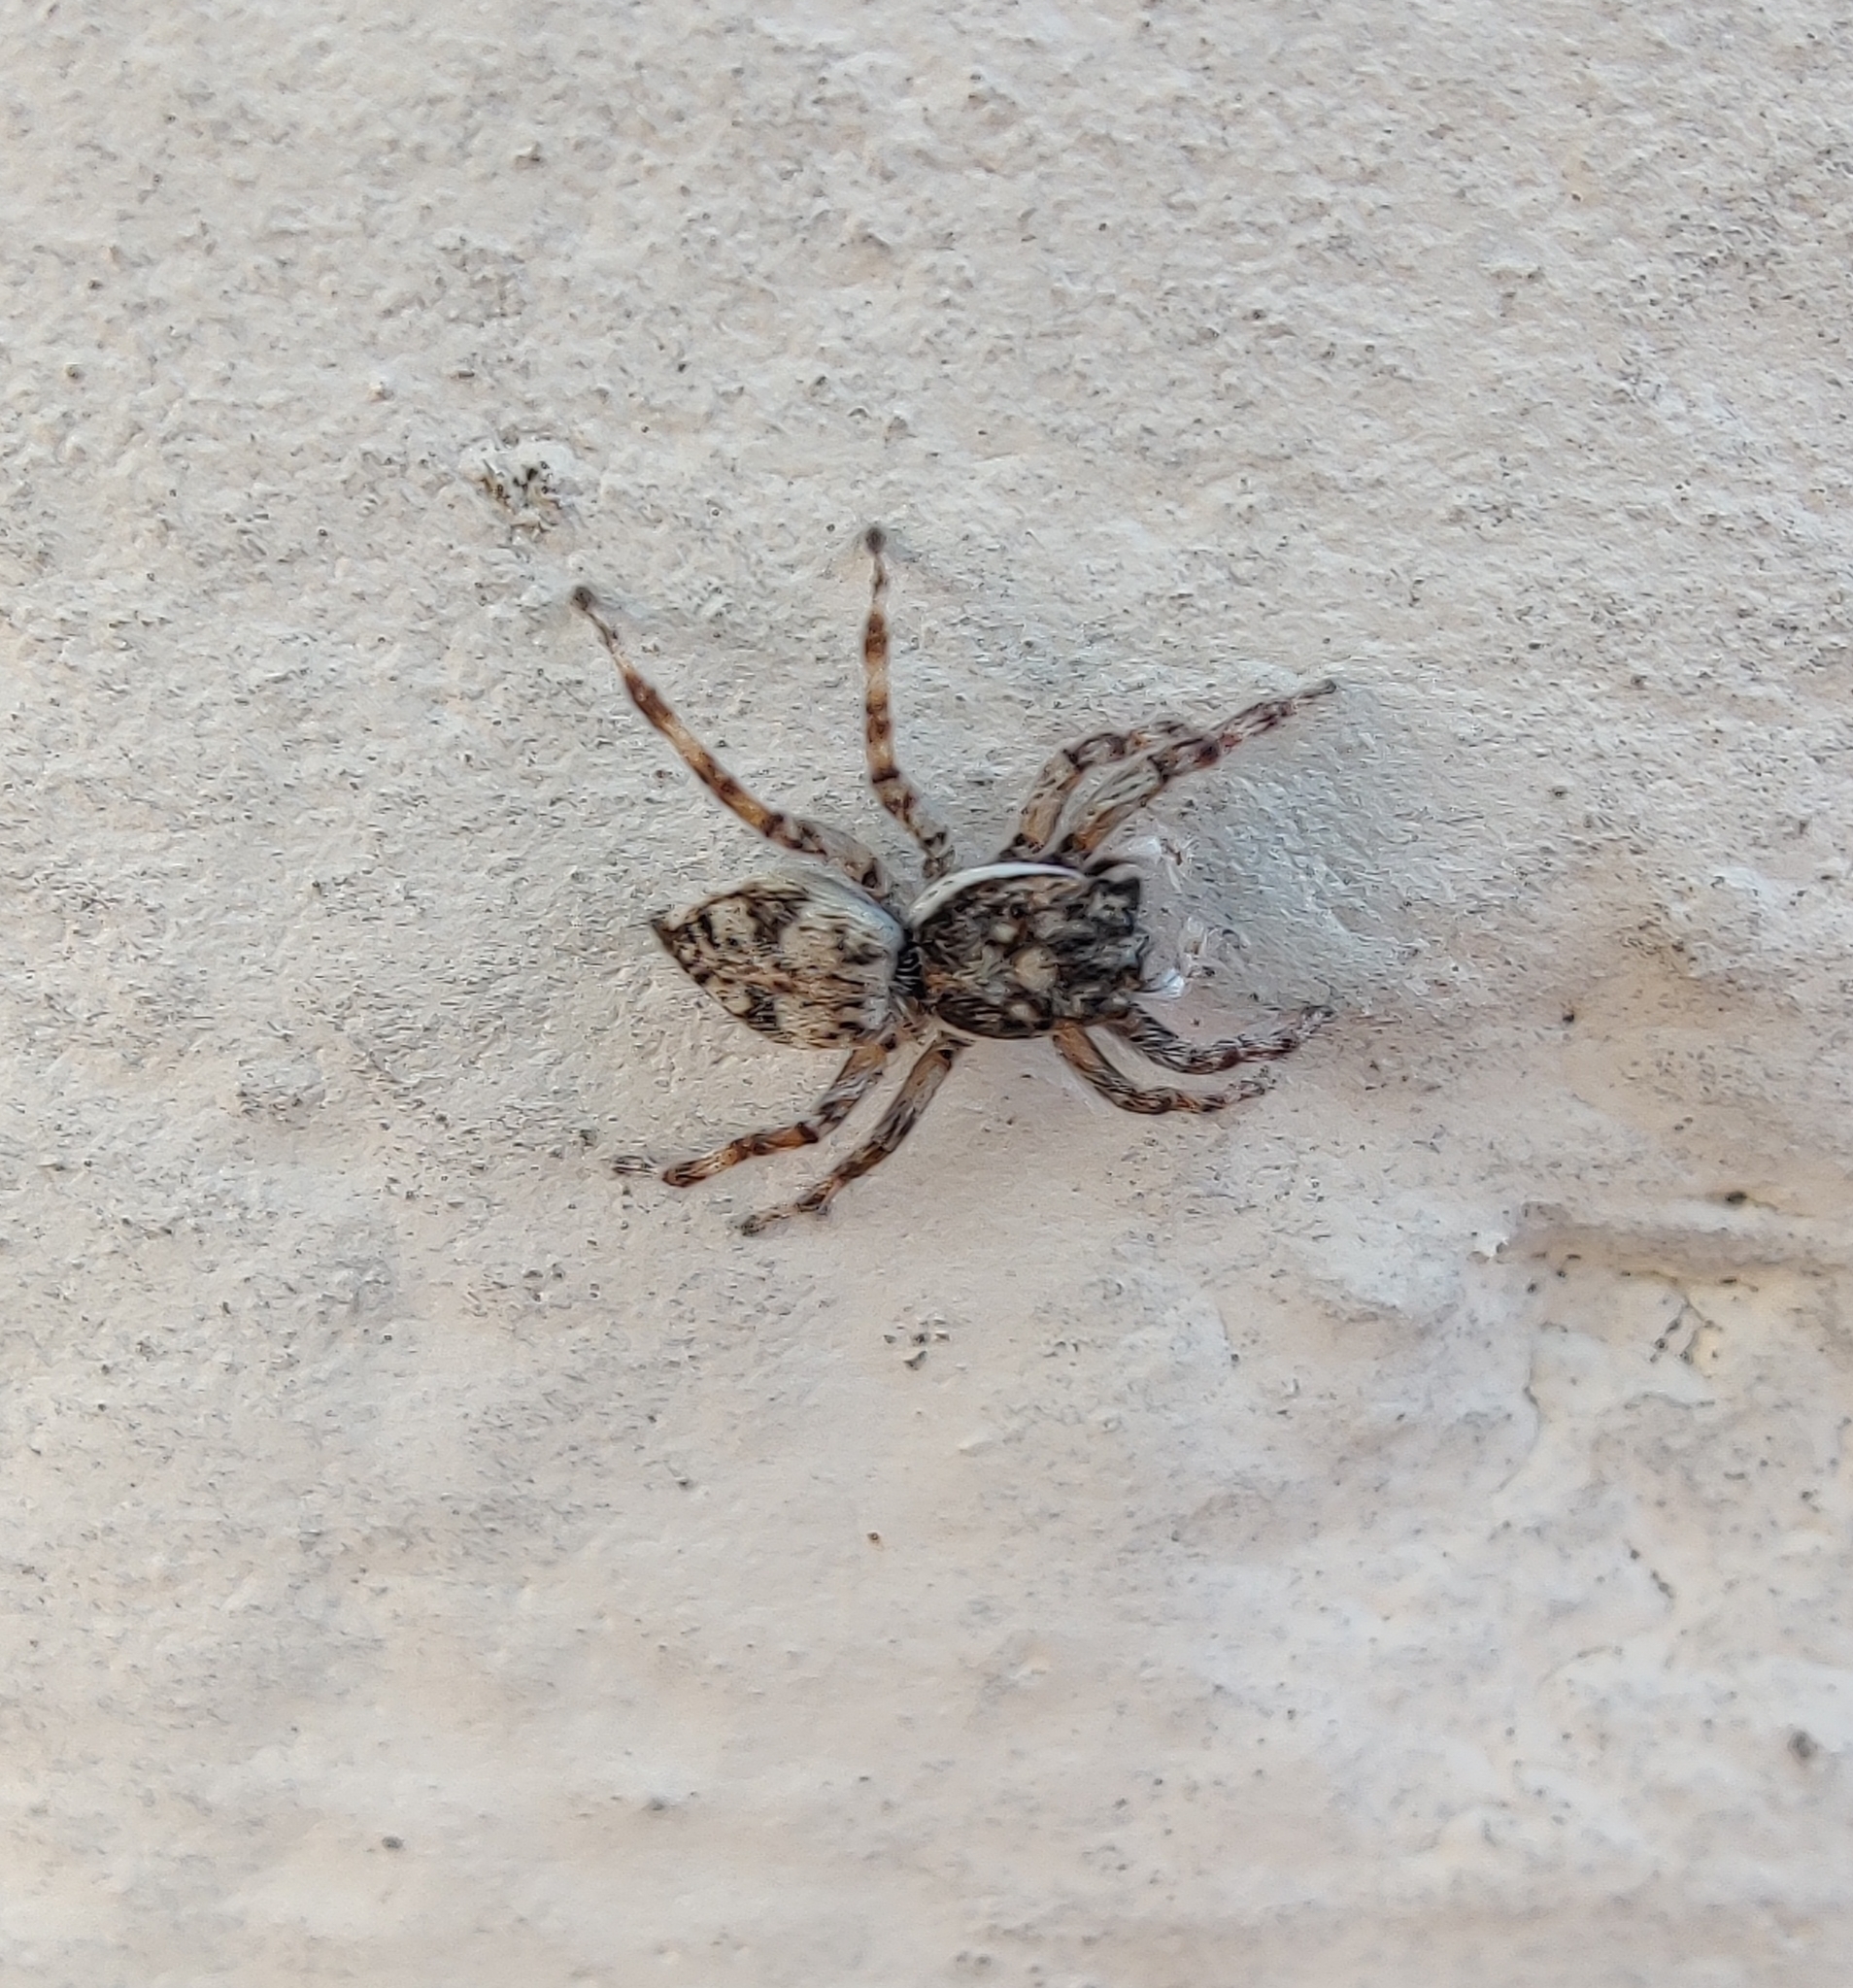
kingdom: Animalia
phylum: Arthropoda
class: Arachnida
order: Araneae
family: Salticidae
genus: Menemerus
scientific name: Menemerus nigli
